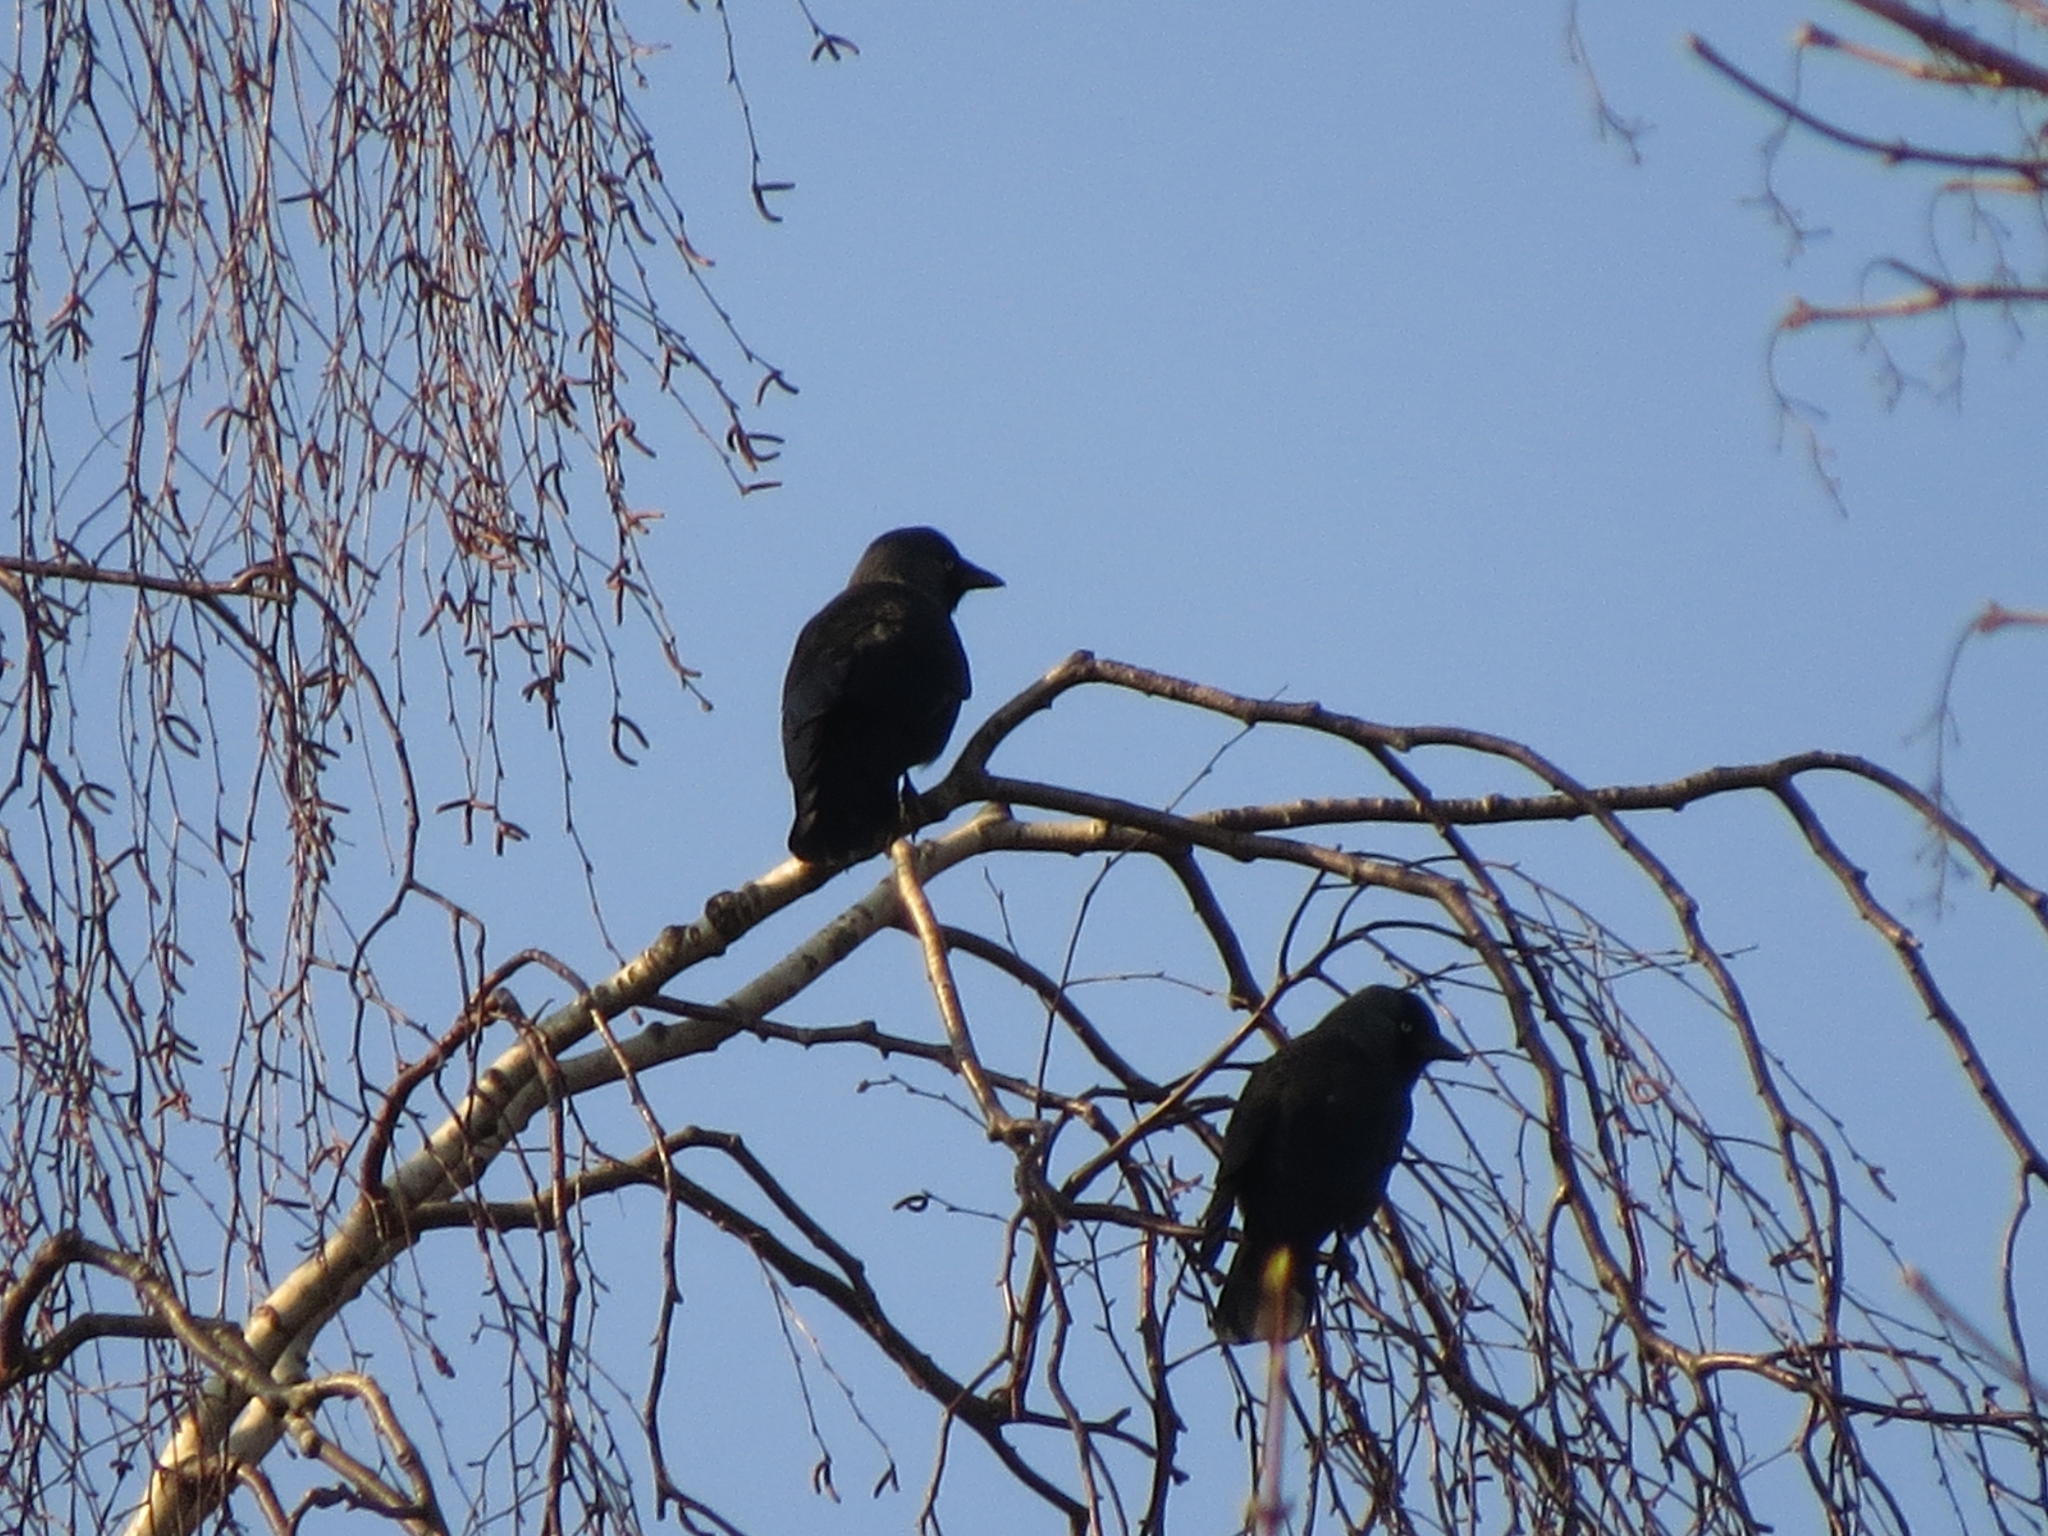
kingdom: Animalia
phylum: Chordata
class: Aves
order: Passeriformes
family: Corvidae
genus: Coloeus
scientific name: Coloeus monedula
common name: Western jackdaw
